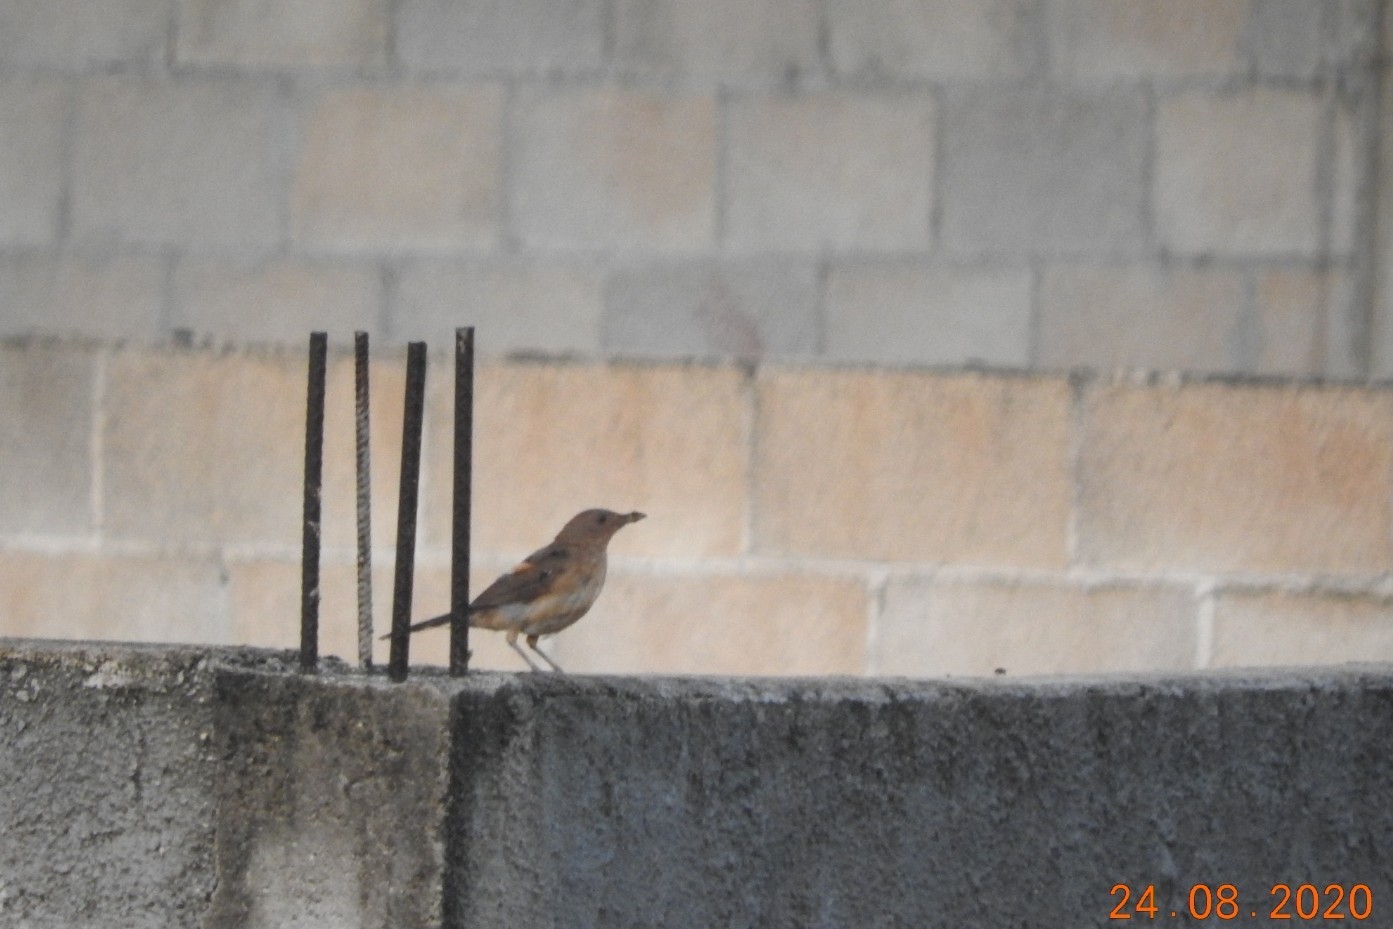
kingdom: Animalia
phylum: Chordata
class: Aves
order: Passeriformes
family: Turdidae
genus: Turdus
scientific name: Turdus grayi
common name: Clay-colored thrush
